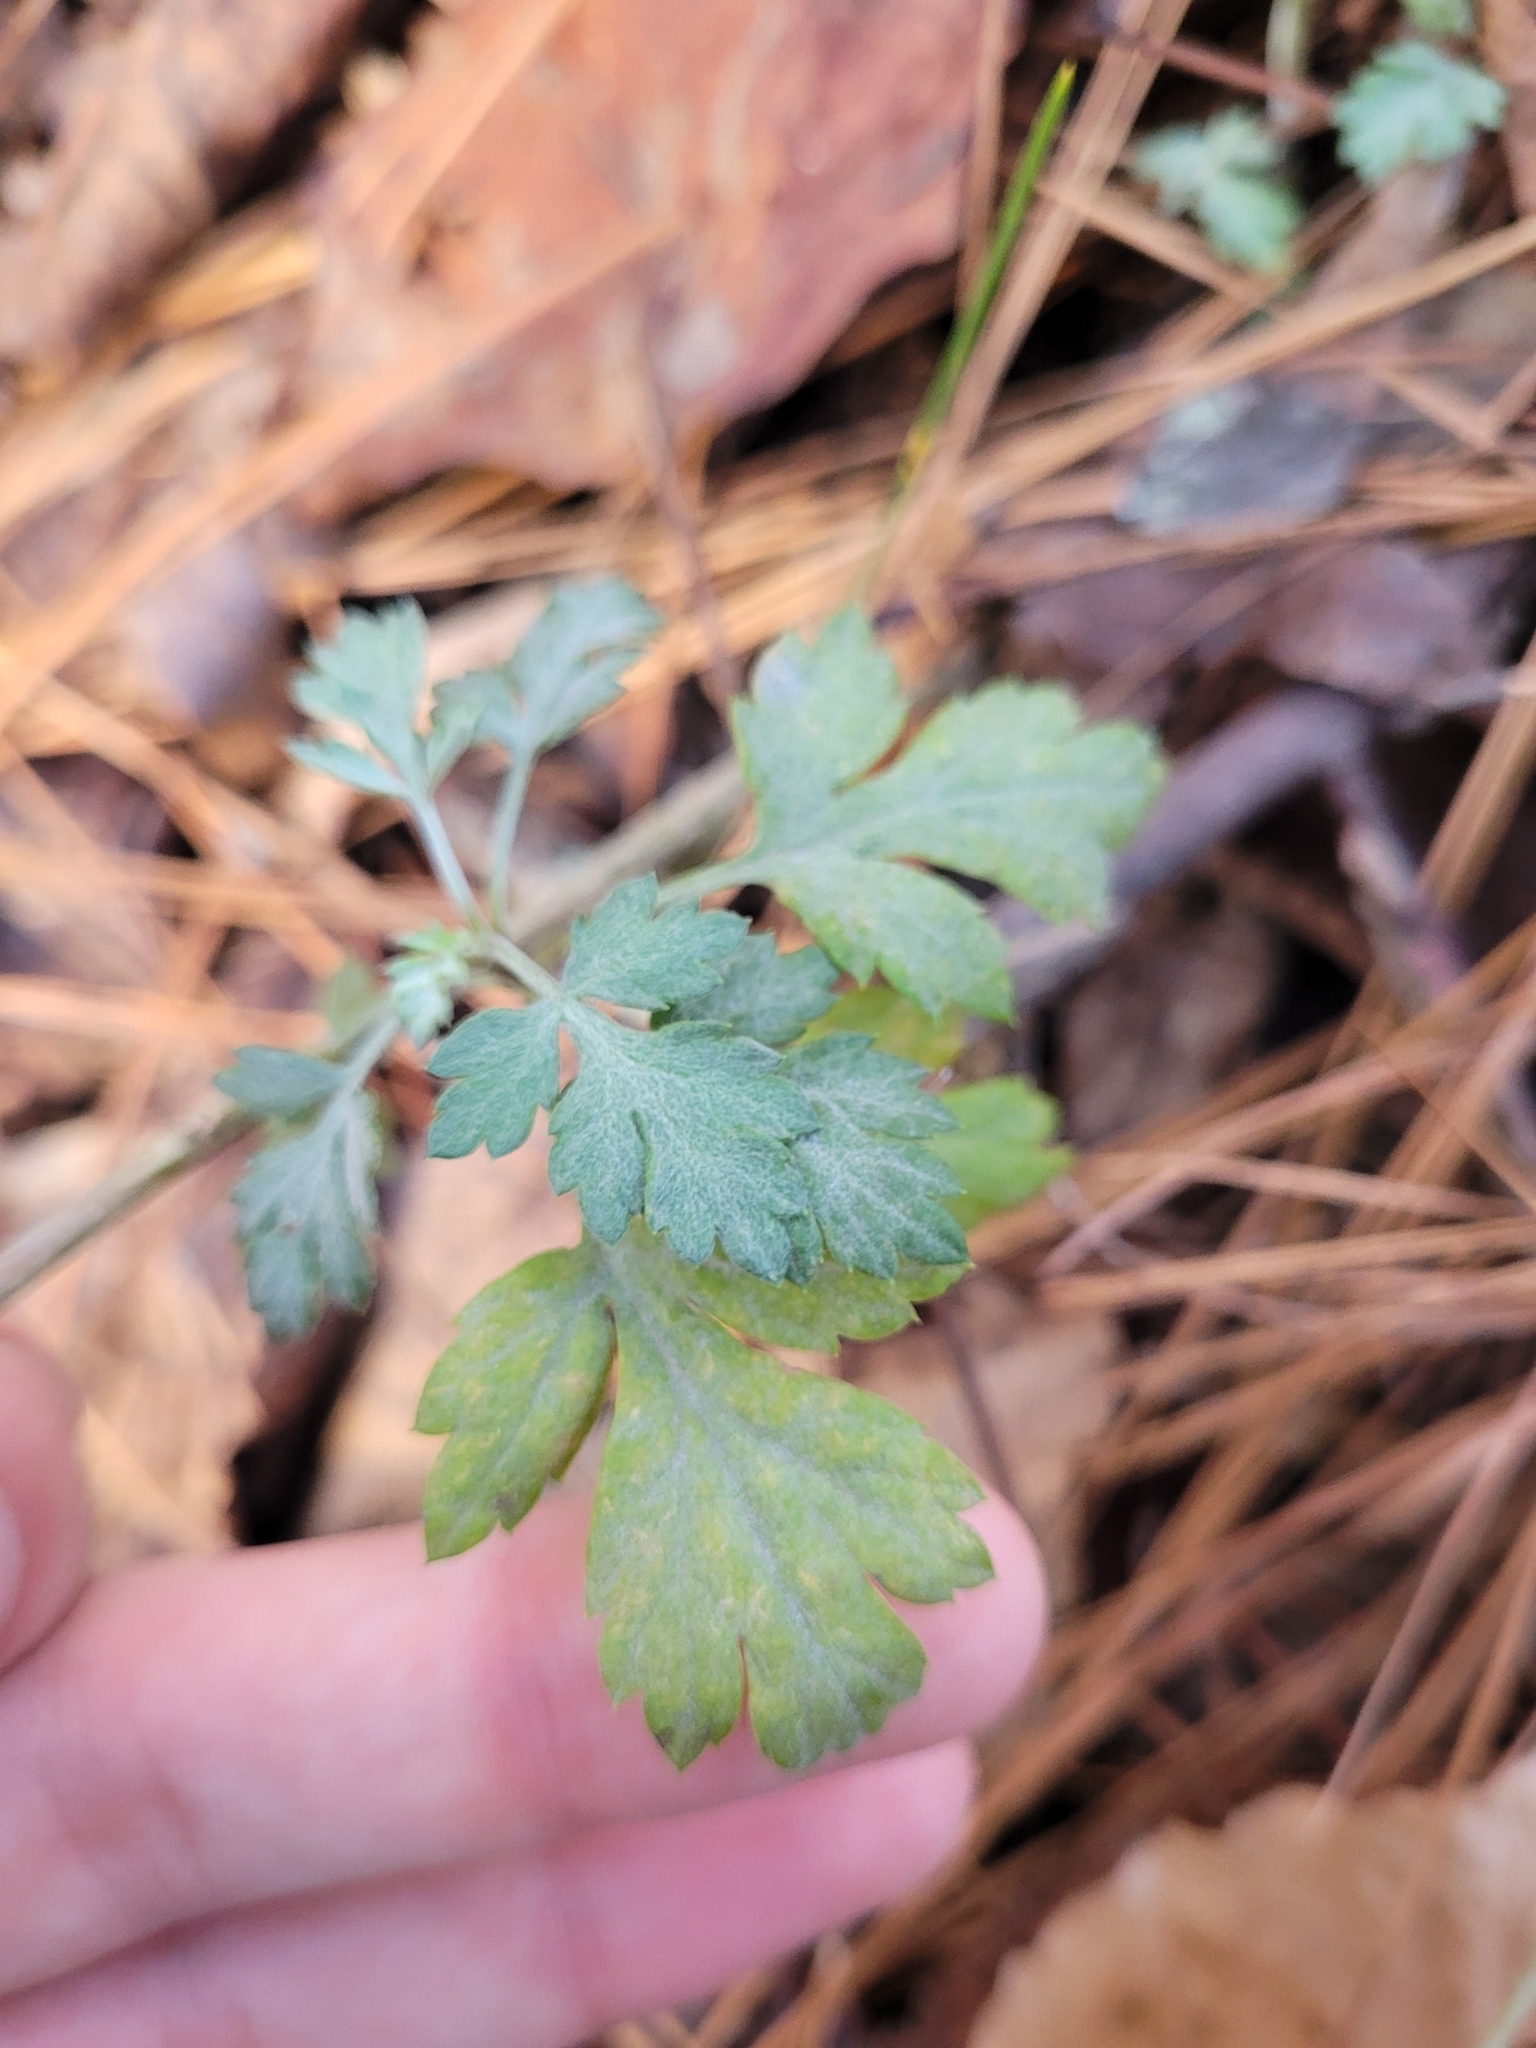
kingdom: Plantae
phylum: Tracheophyta
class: Magnoliopsida
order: Rosales
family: Rosaceae
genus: Crataegus
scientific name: Crataegus marshallii
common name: Parsley-hawthorn
